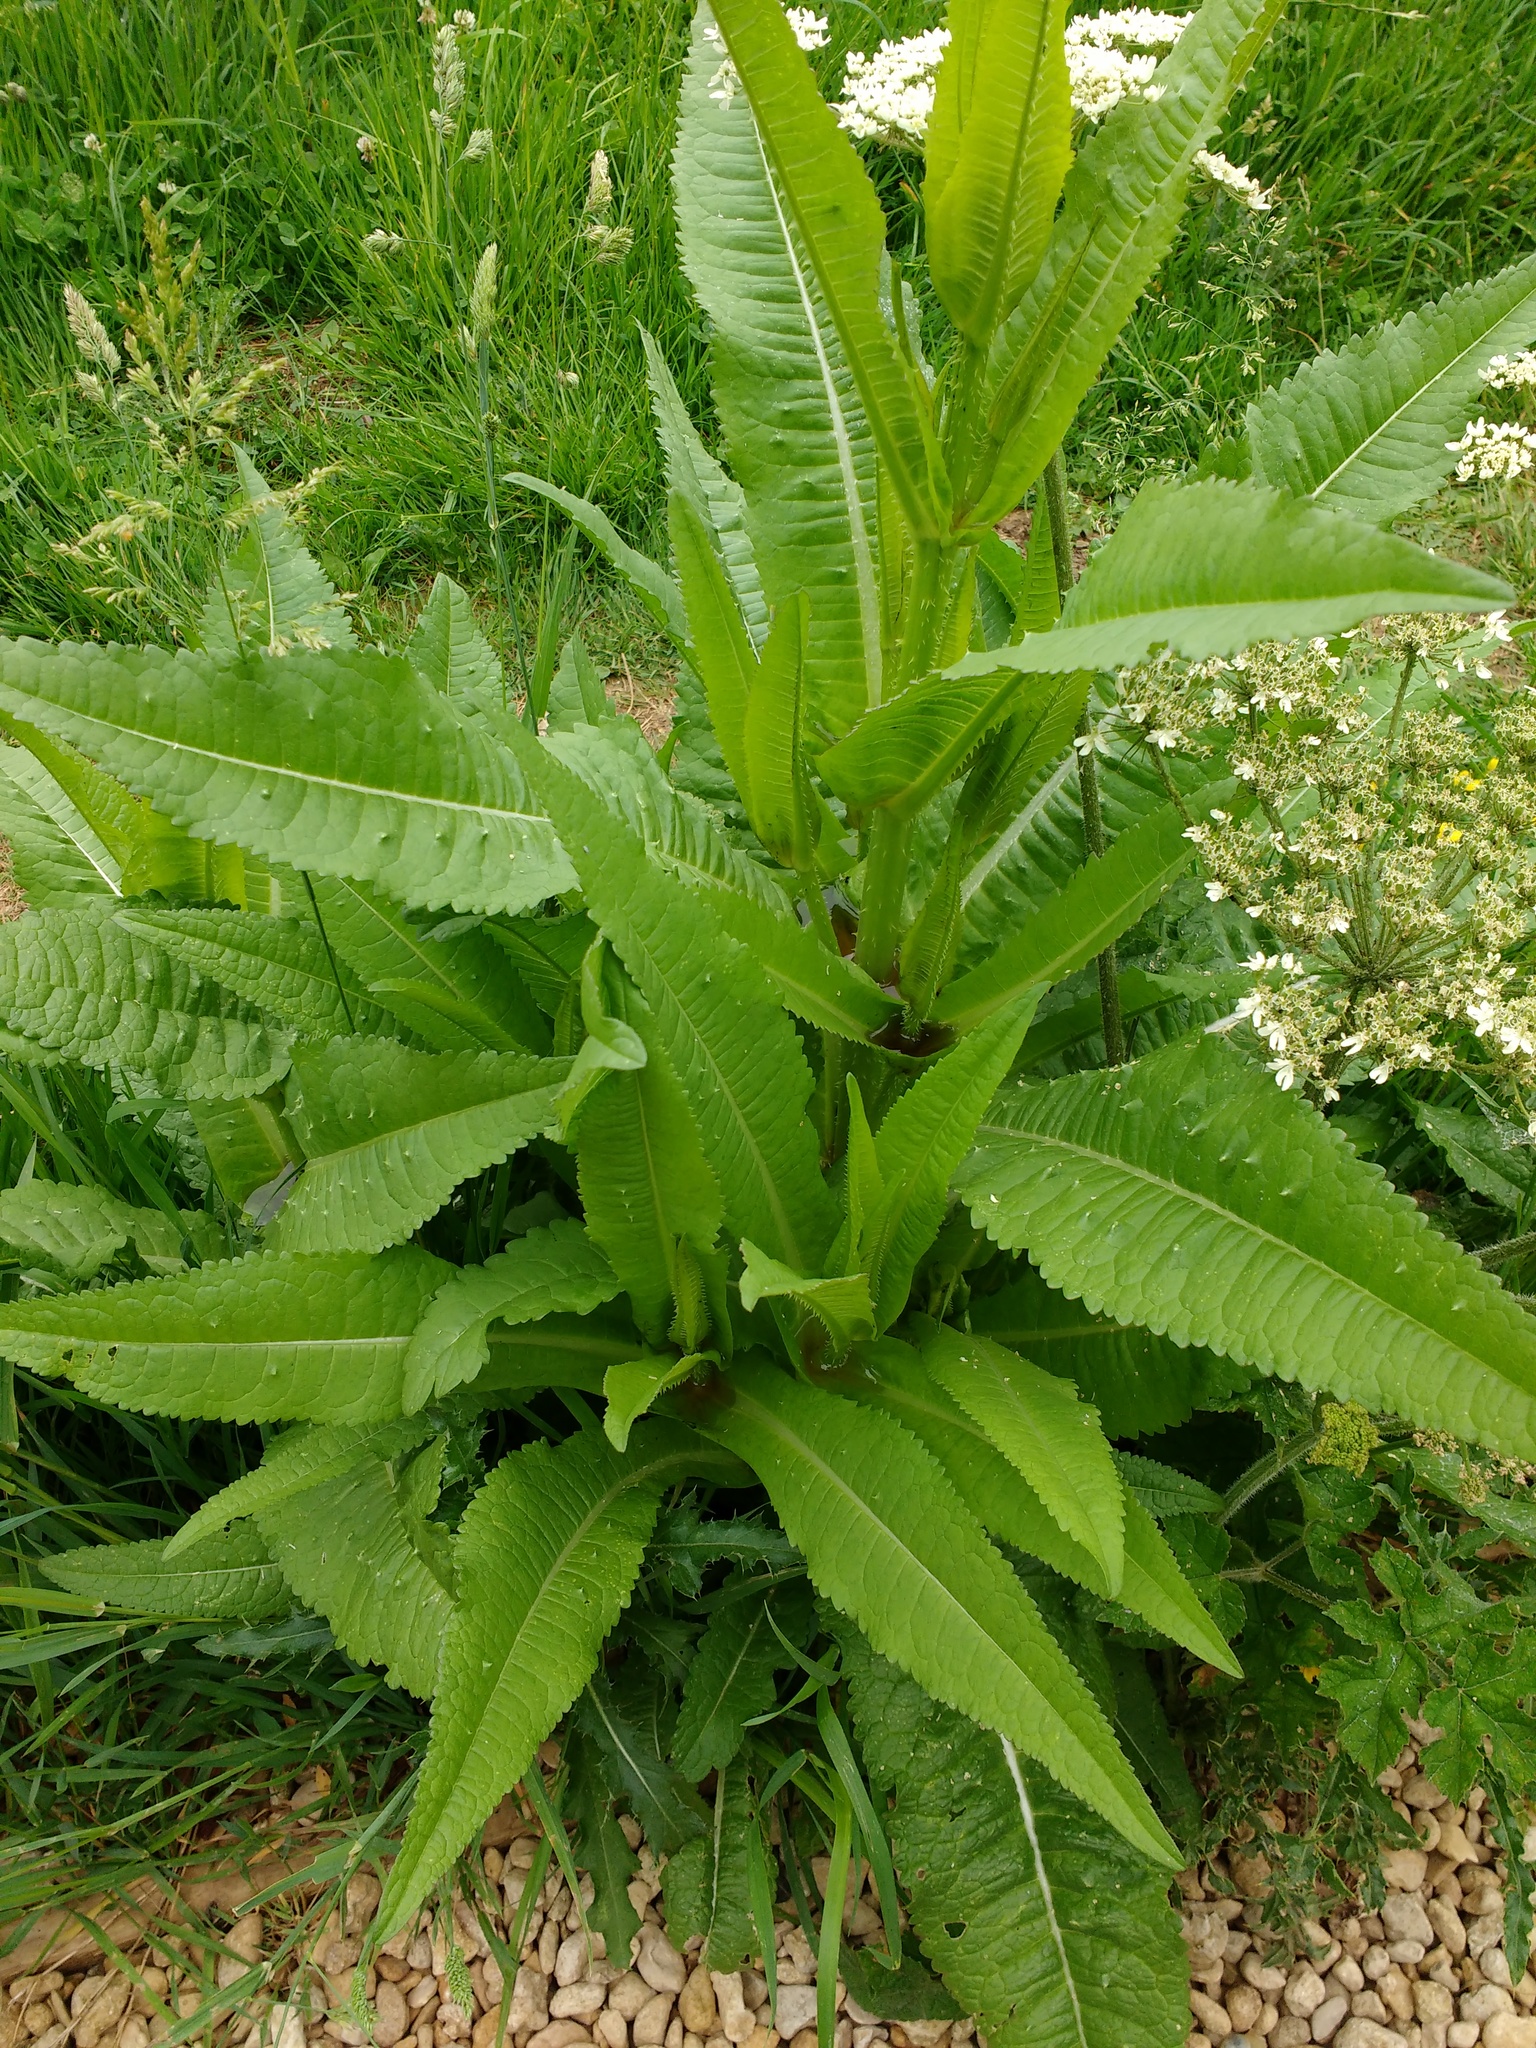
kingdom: Plantae
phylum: Tracheophyta
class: Magnoliopsida
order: Dipsacales
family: Caprifoliaceae
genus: Dipsacus
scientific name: Dipsacus fullonum
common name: Teasel
